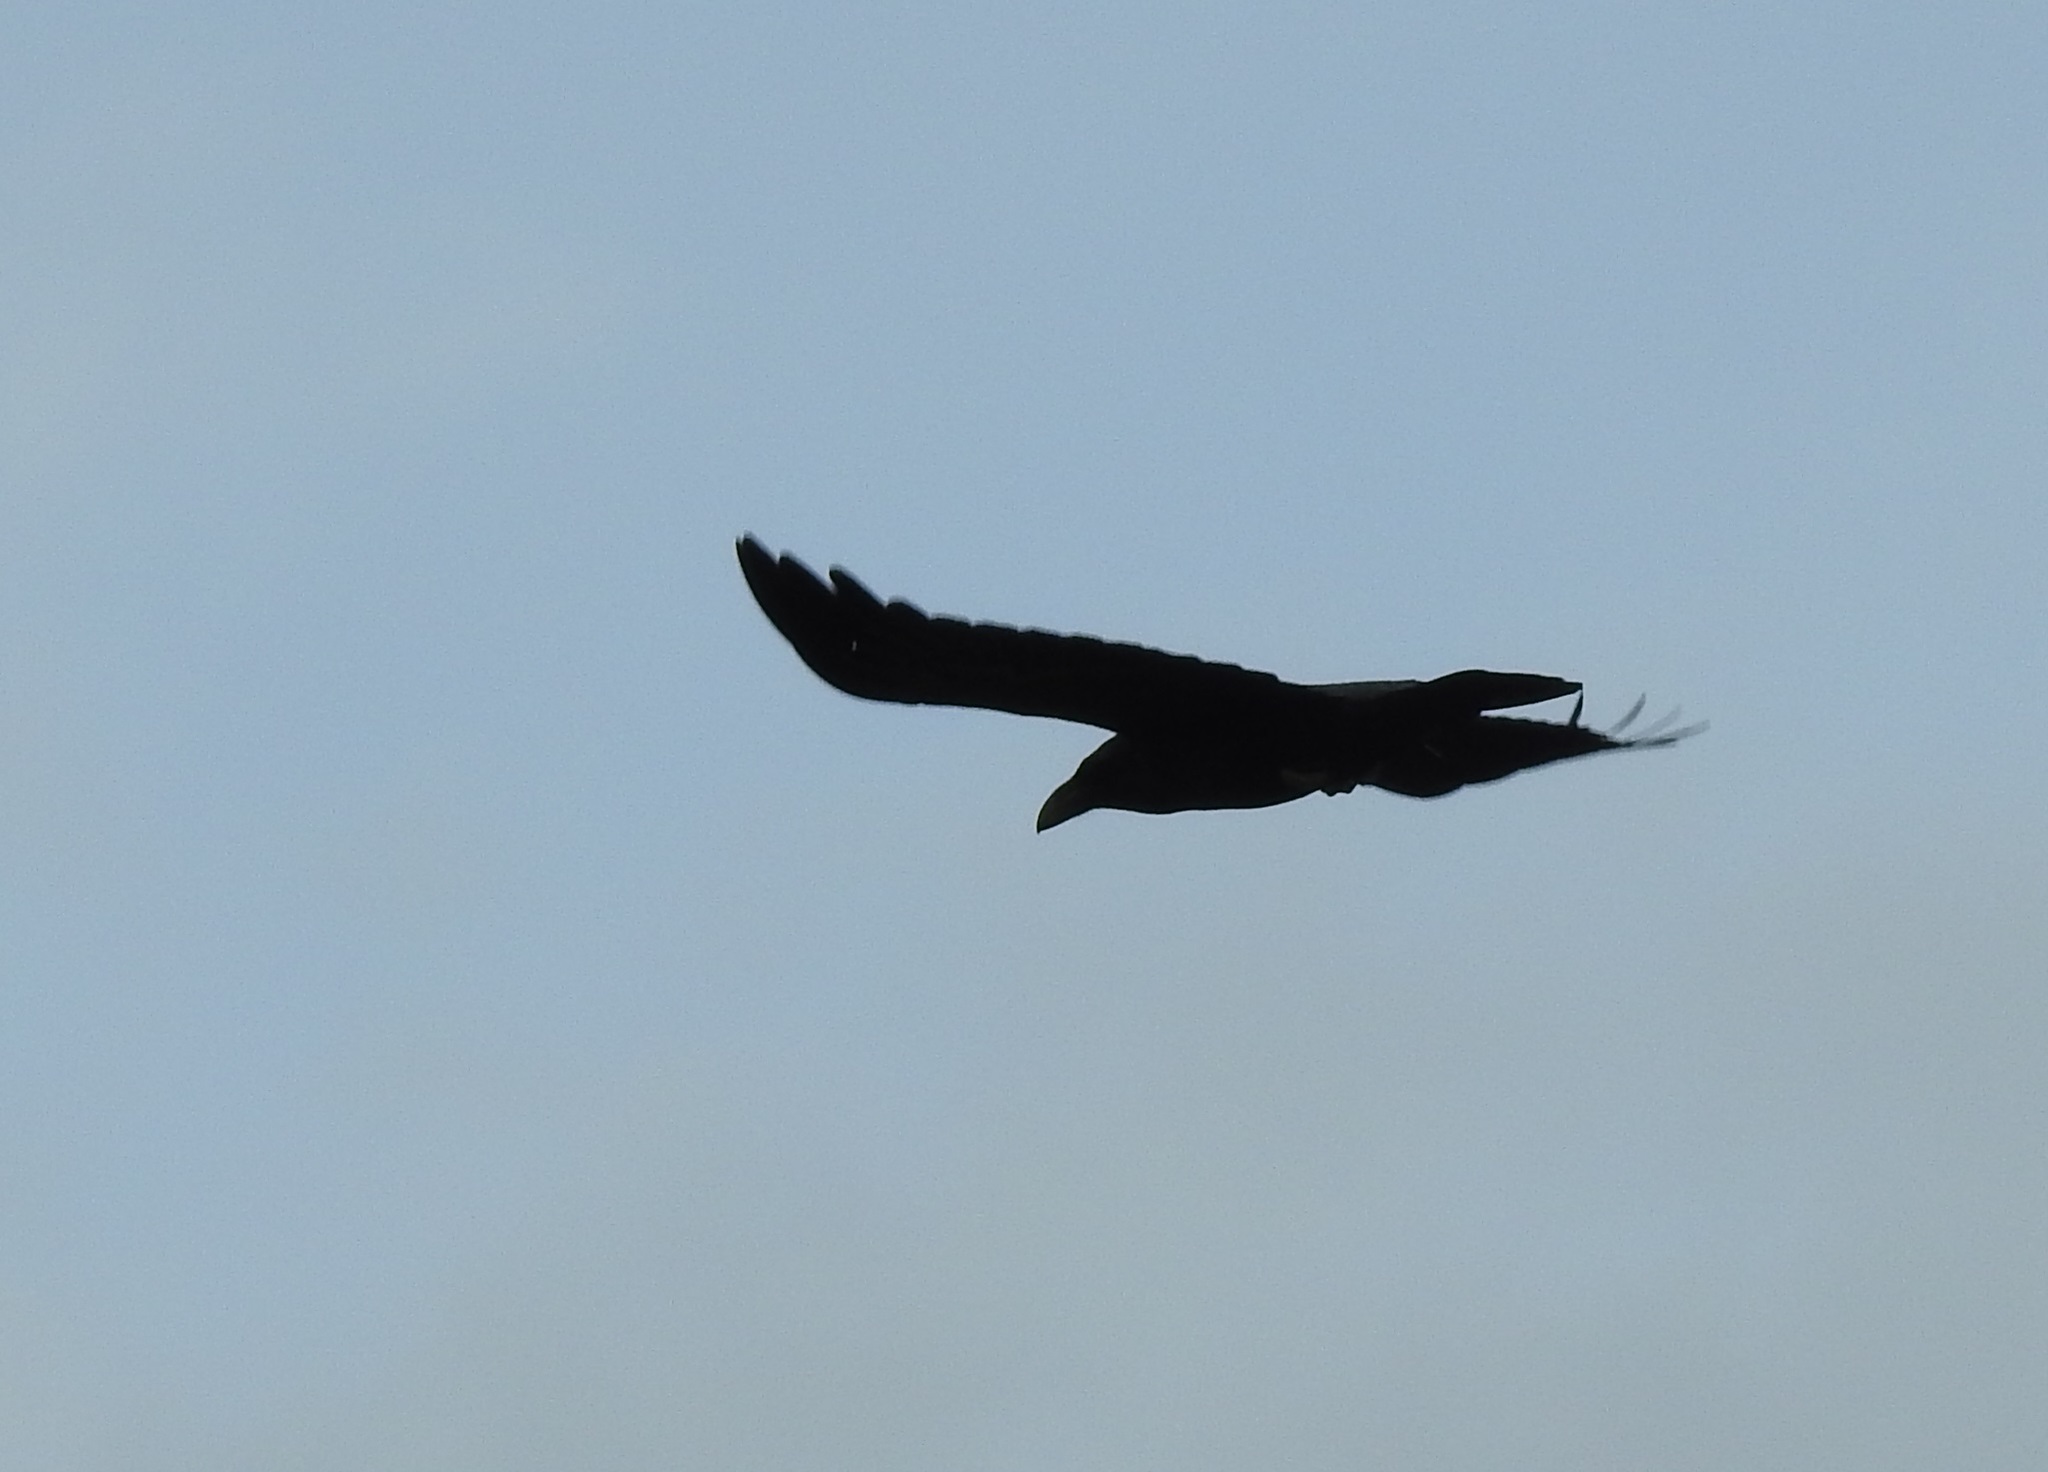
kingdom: Animalia
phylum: Chordata
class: Aves
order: Passeriformes
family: Corvidae
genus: Corvus
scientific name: Corvus corax
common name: Common raven
